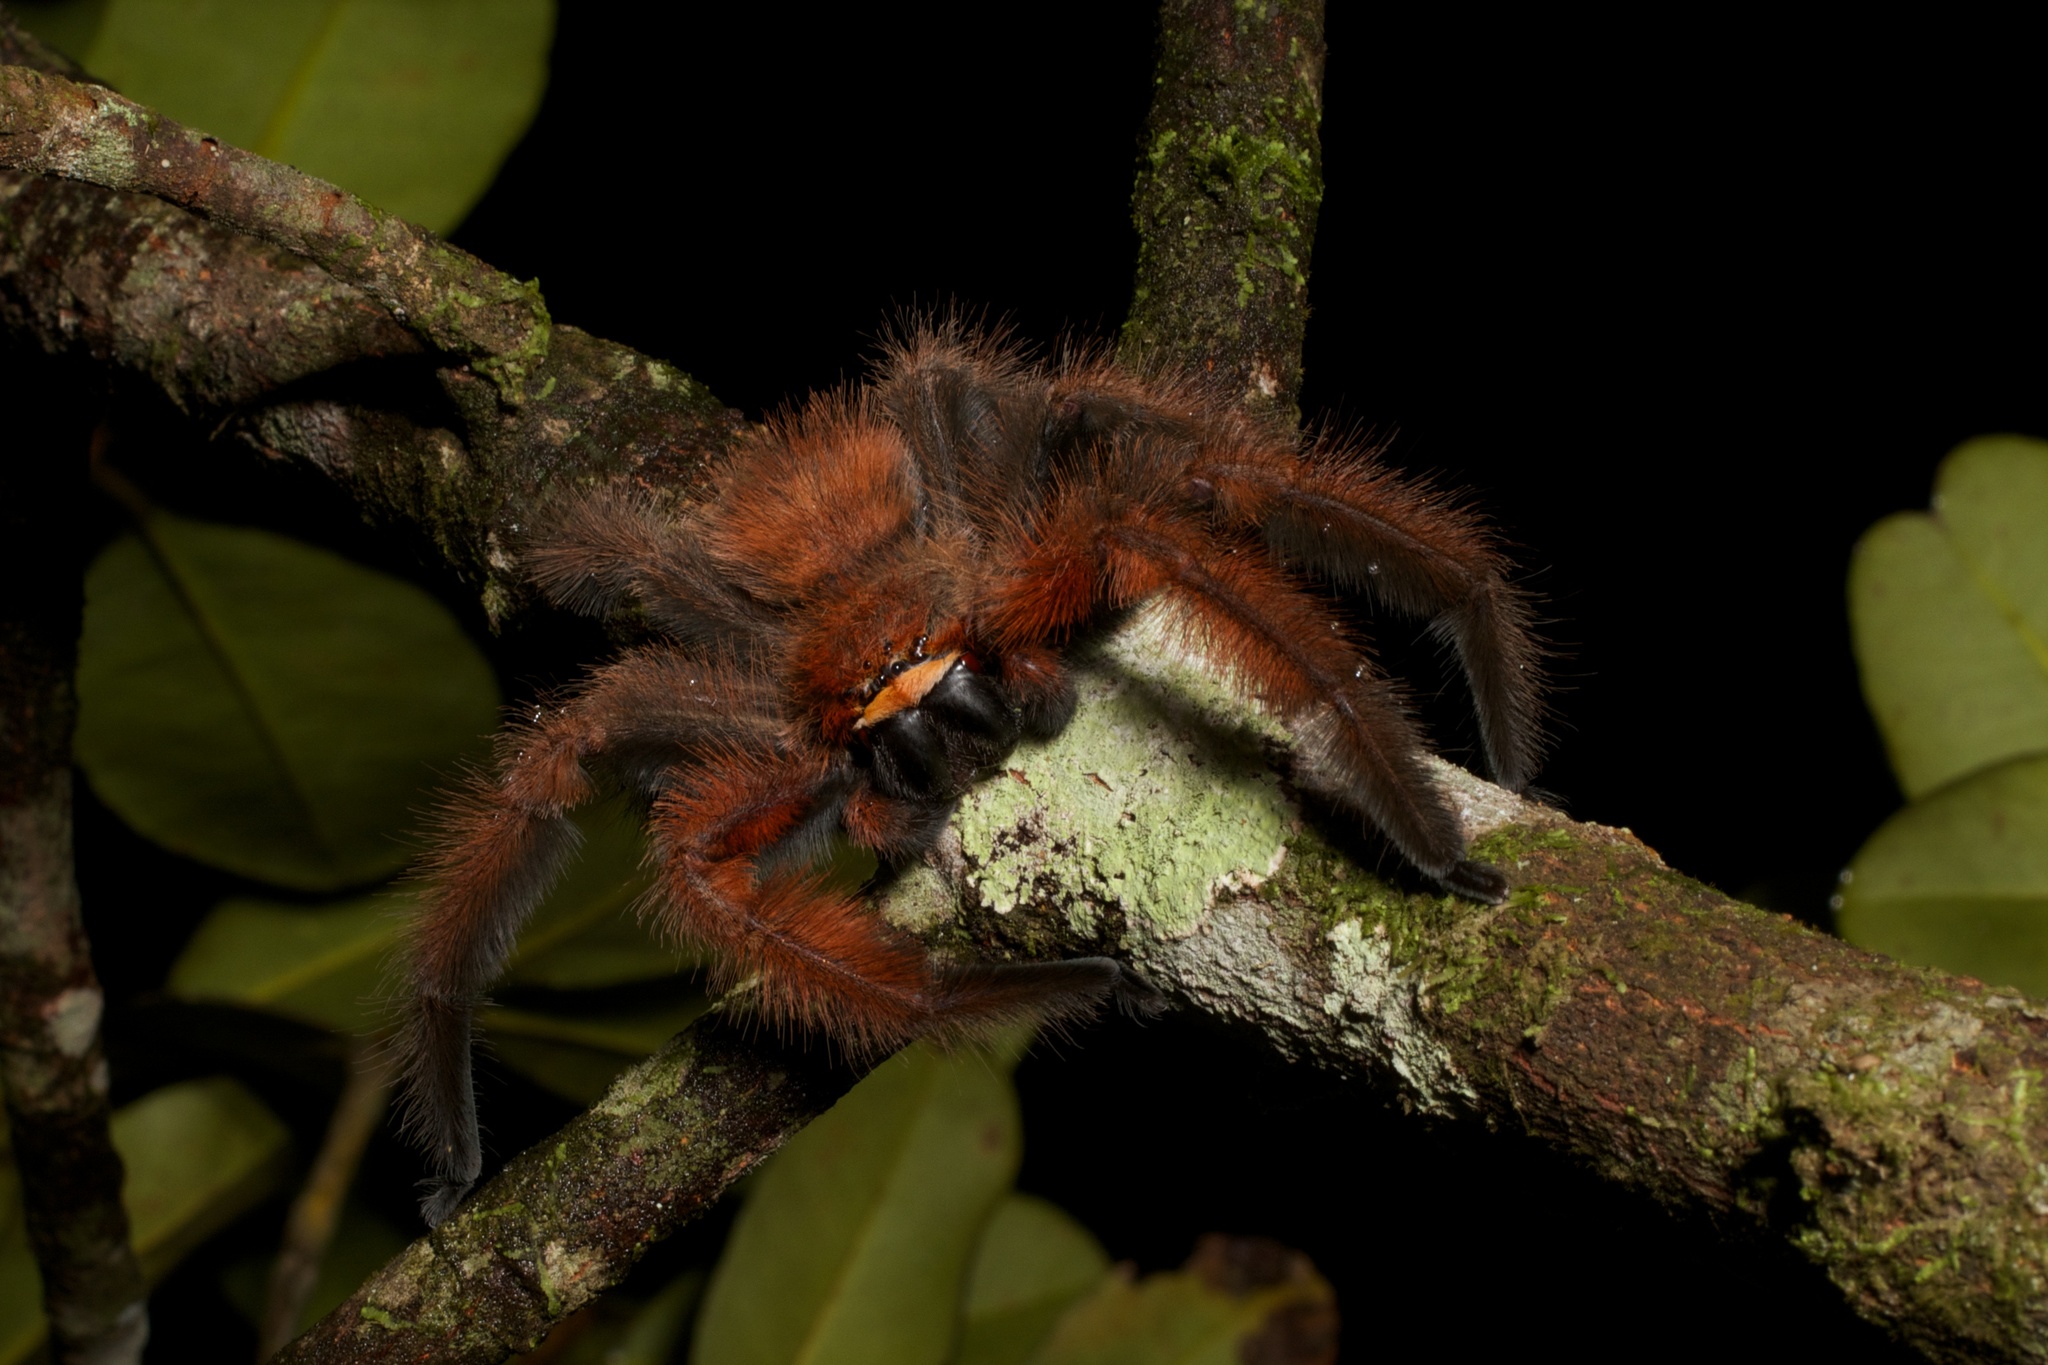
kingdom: Animalia
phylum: Arthropoda
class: Arachnida
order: Araneae
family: Sparassidae
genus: Megaloremmius
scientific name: Megaloremmius leo
